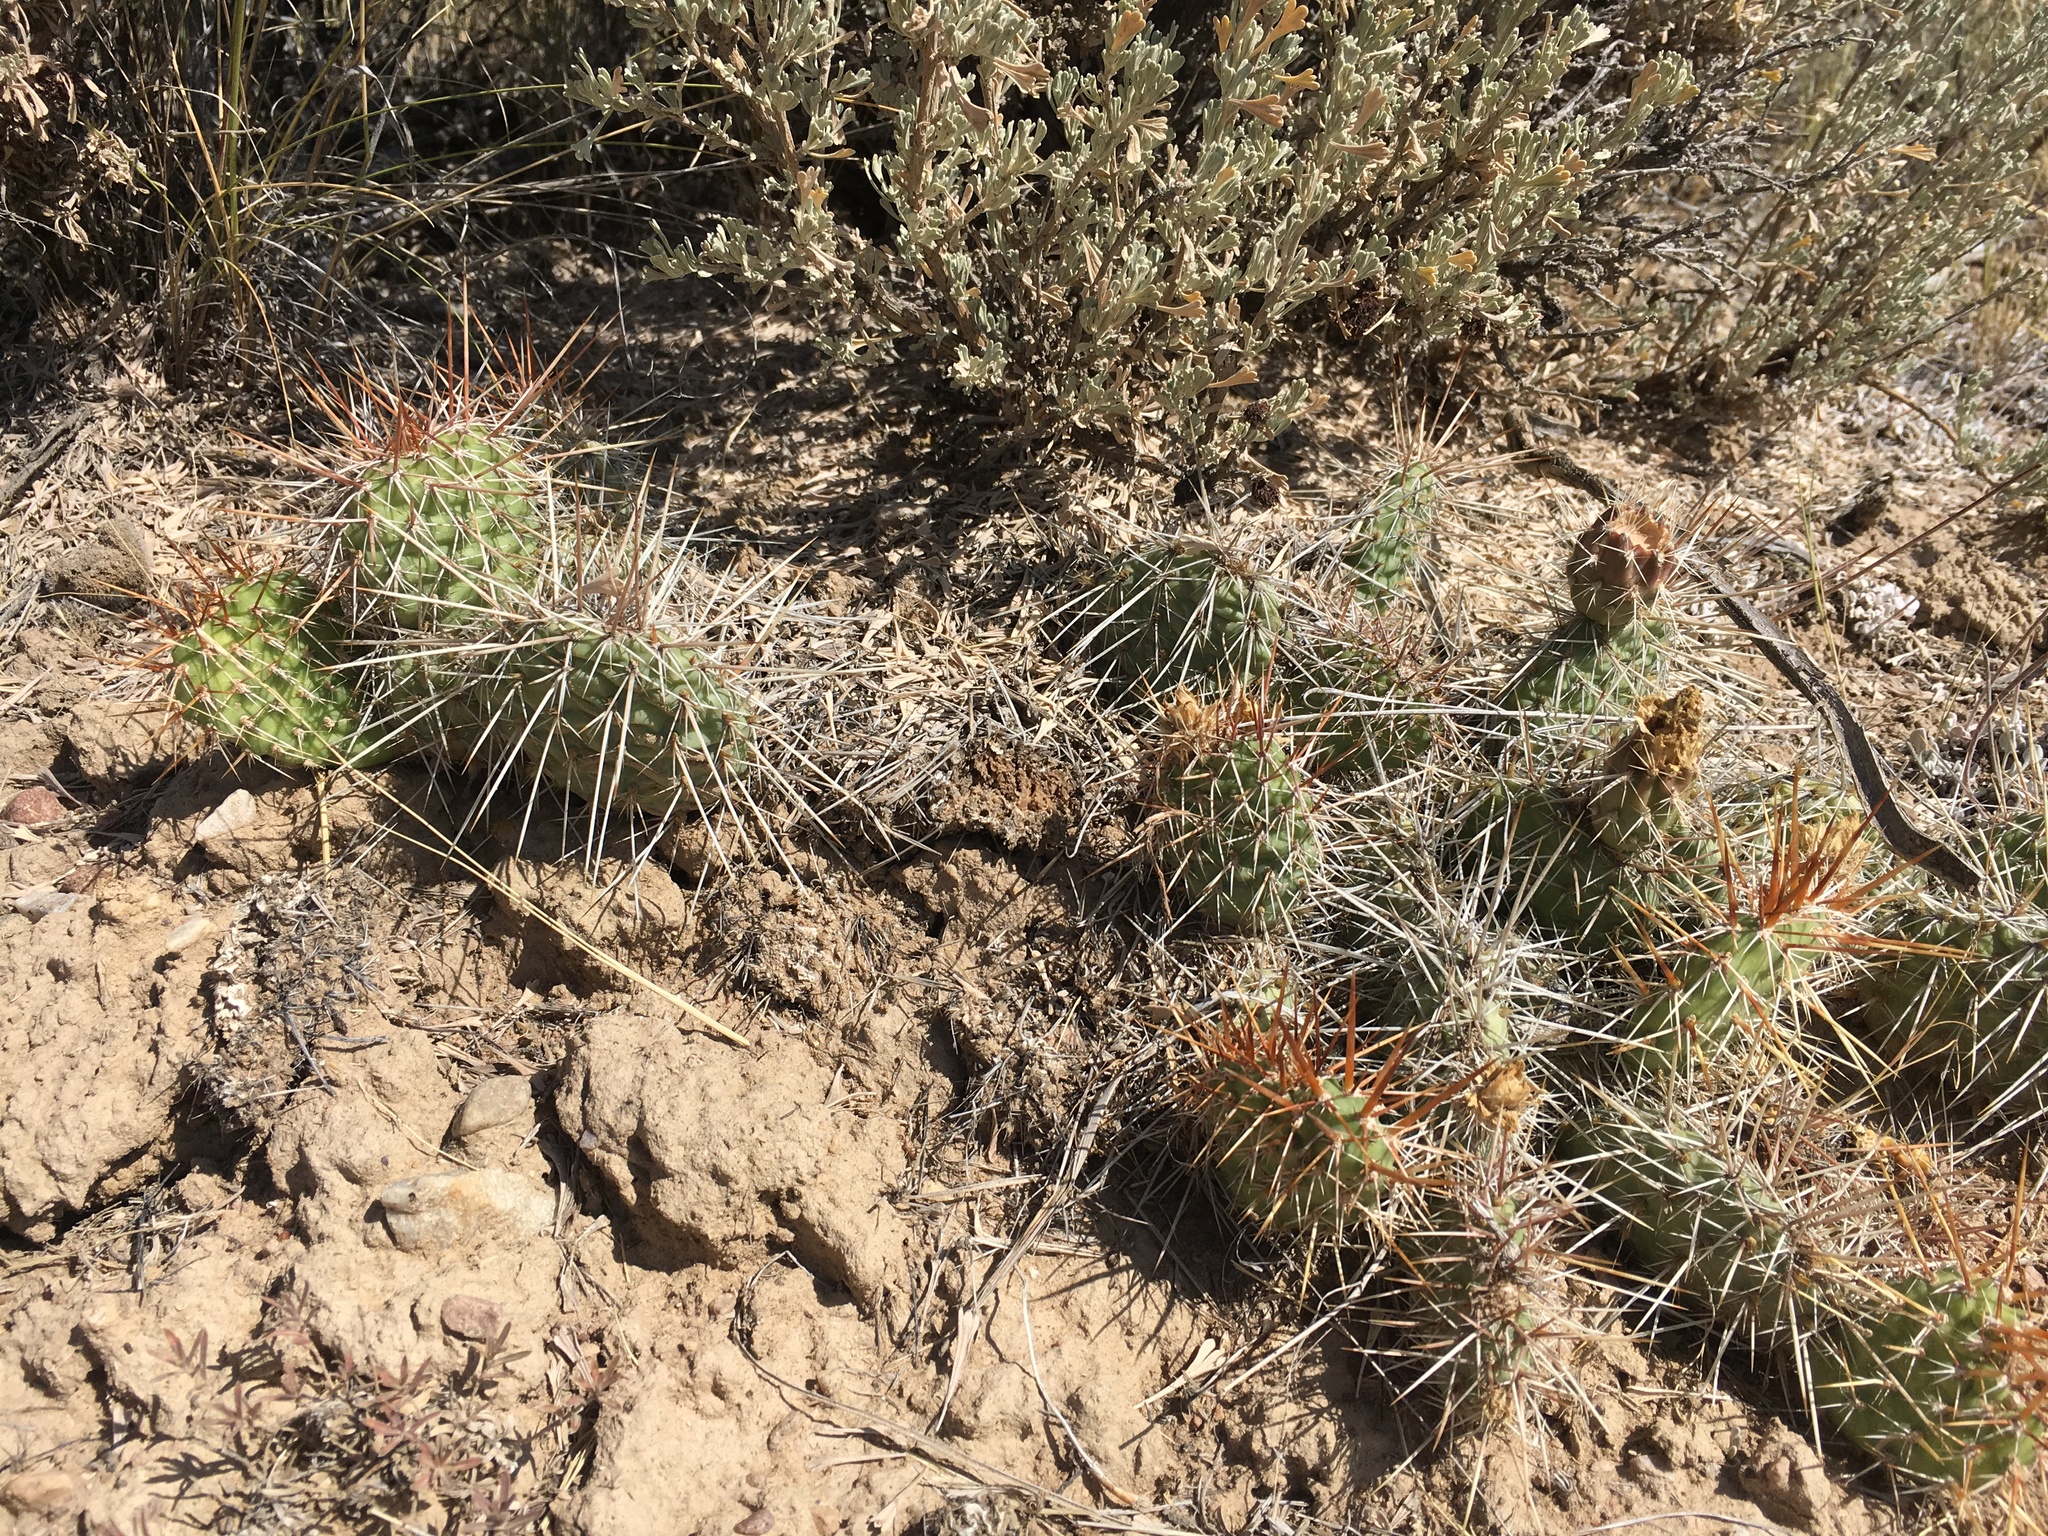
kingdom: Plantae
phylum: Tracheophyta
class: Magnoliopsida
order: Caryophyllales
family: Cactaceae
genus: Opuntia
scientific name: Opuntia polyacantha
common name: Plains prickly-pear
